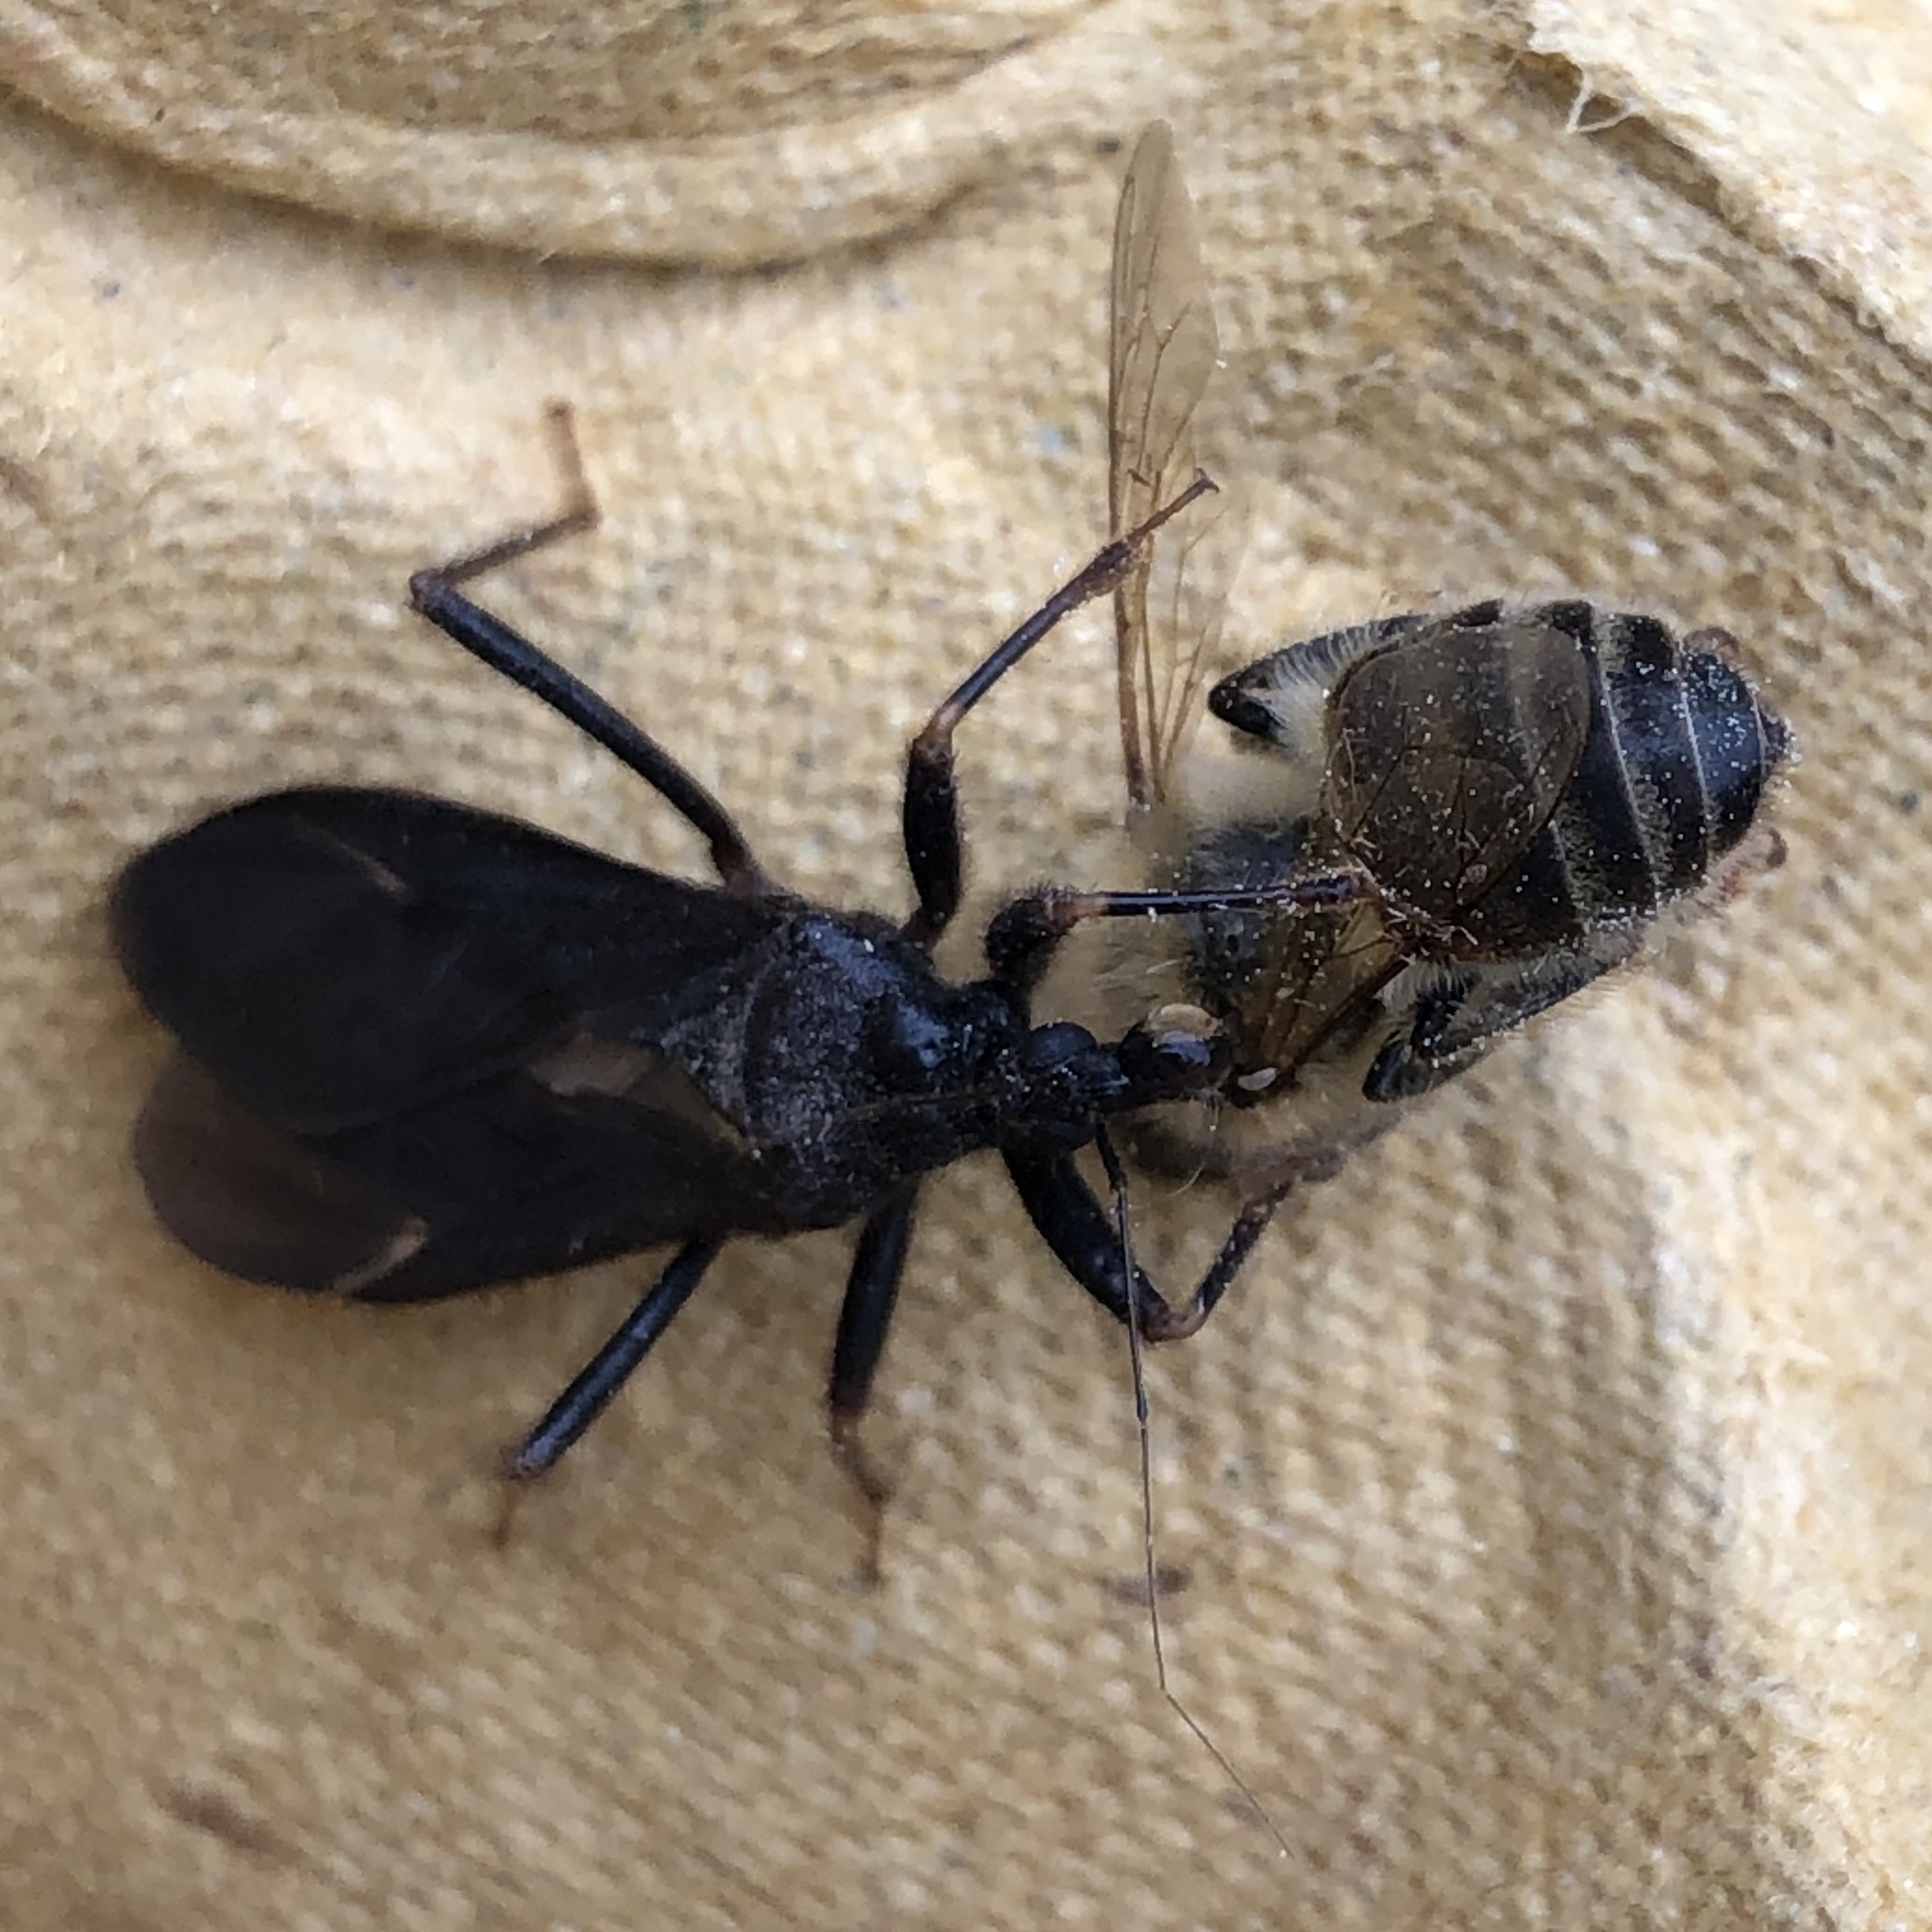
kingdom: Animalia
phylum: Arthropoda
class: Insecta
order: Hemiptera
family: Reduviidae
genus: Reduvius
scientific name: Reduvius personatus
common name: Masked hunter
